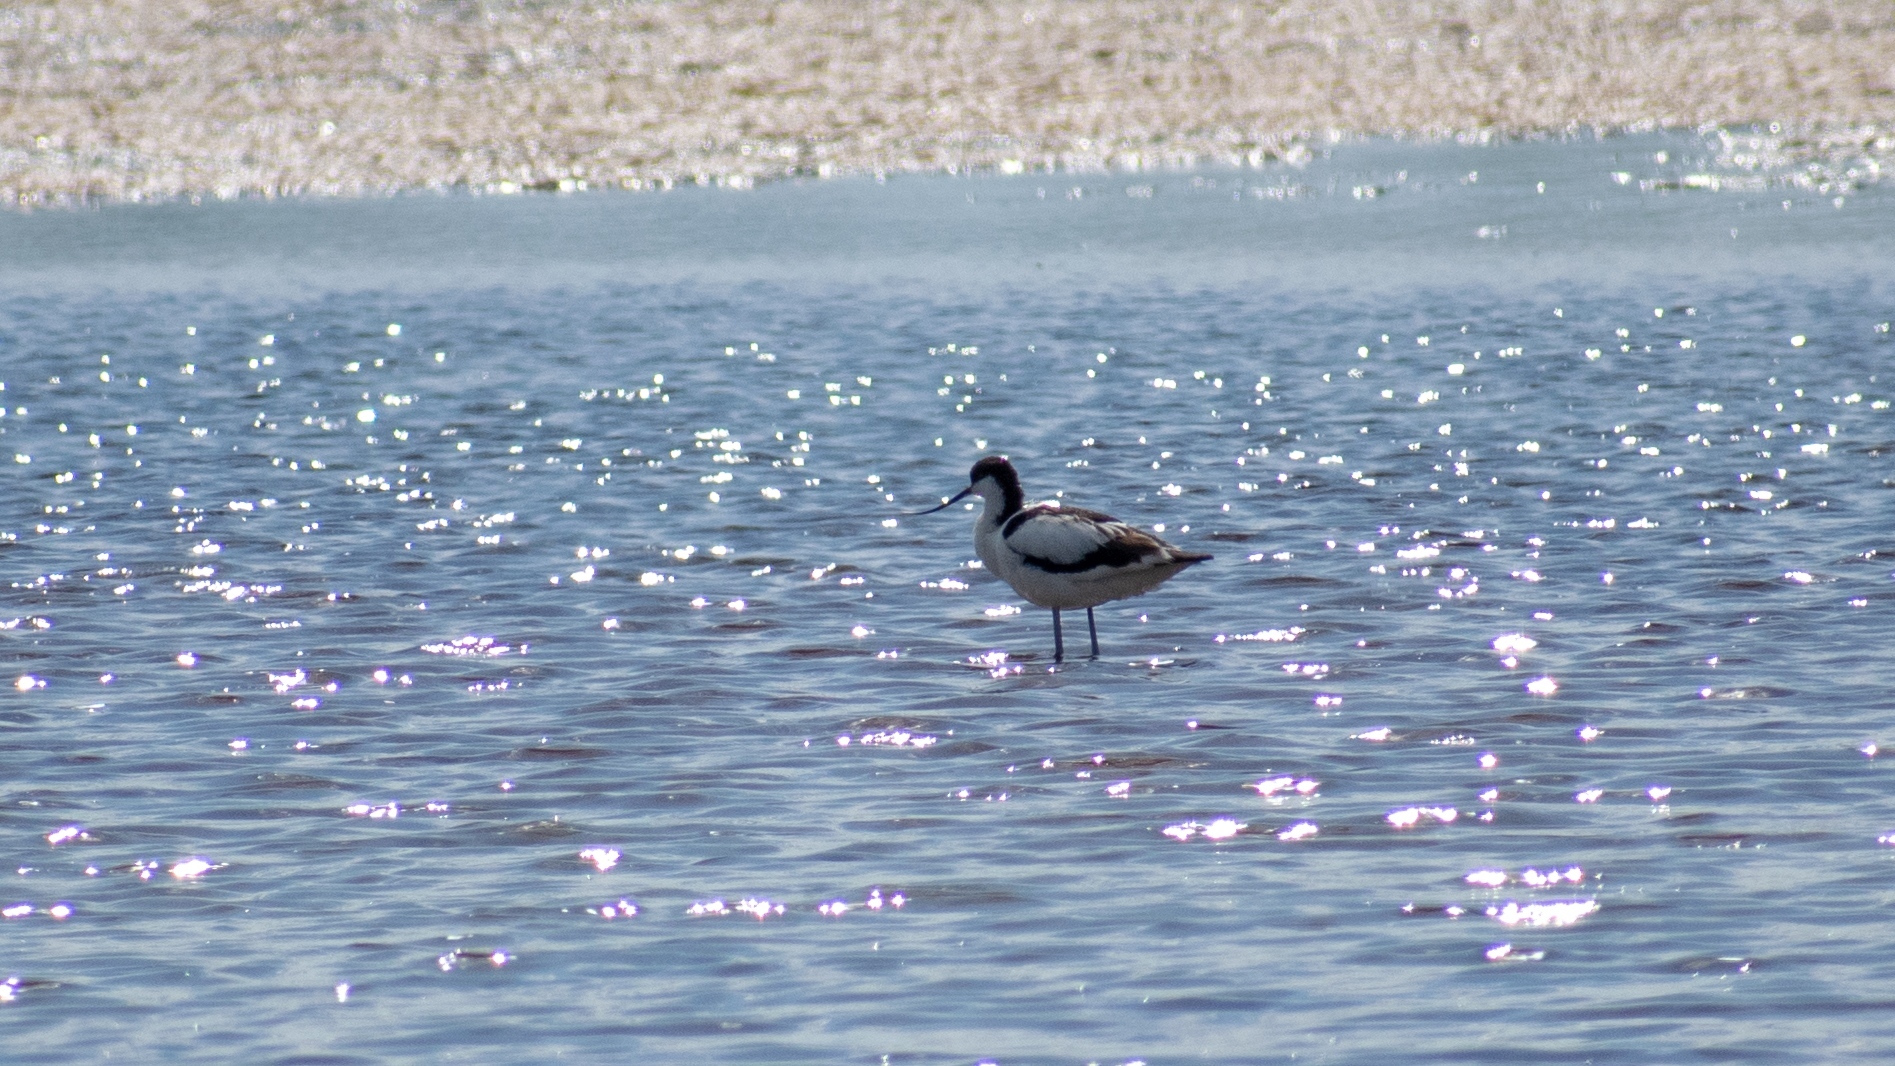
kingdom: Animalia
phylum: Chordata
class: Aves
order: Charadriiformes
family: Recurvirostridae
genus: Recurvirostra
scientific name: Recurvirostra avosetta
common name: Pied avocet
